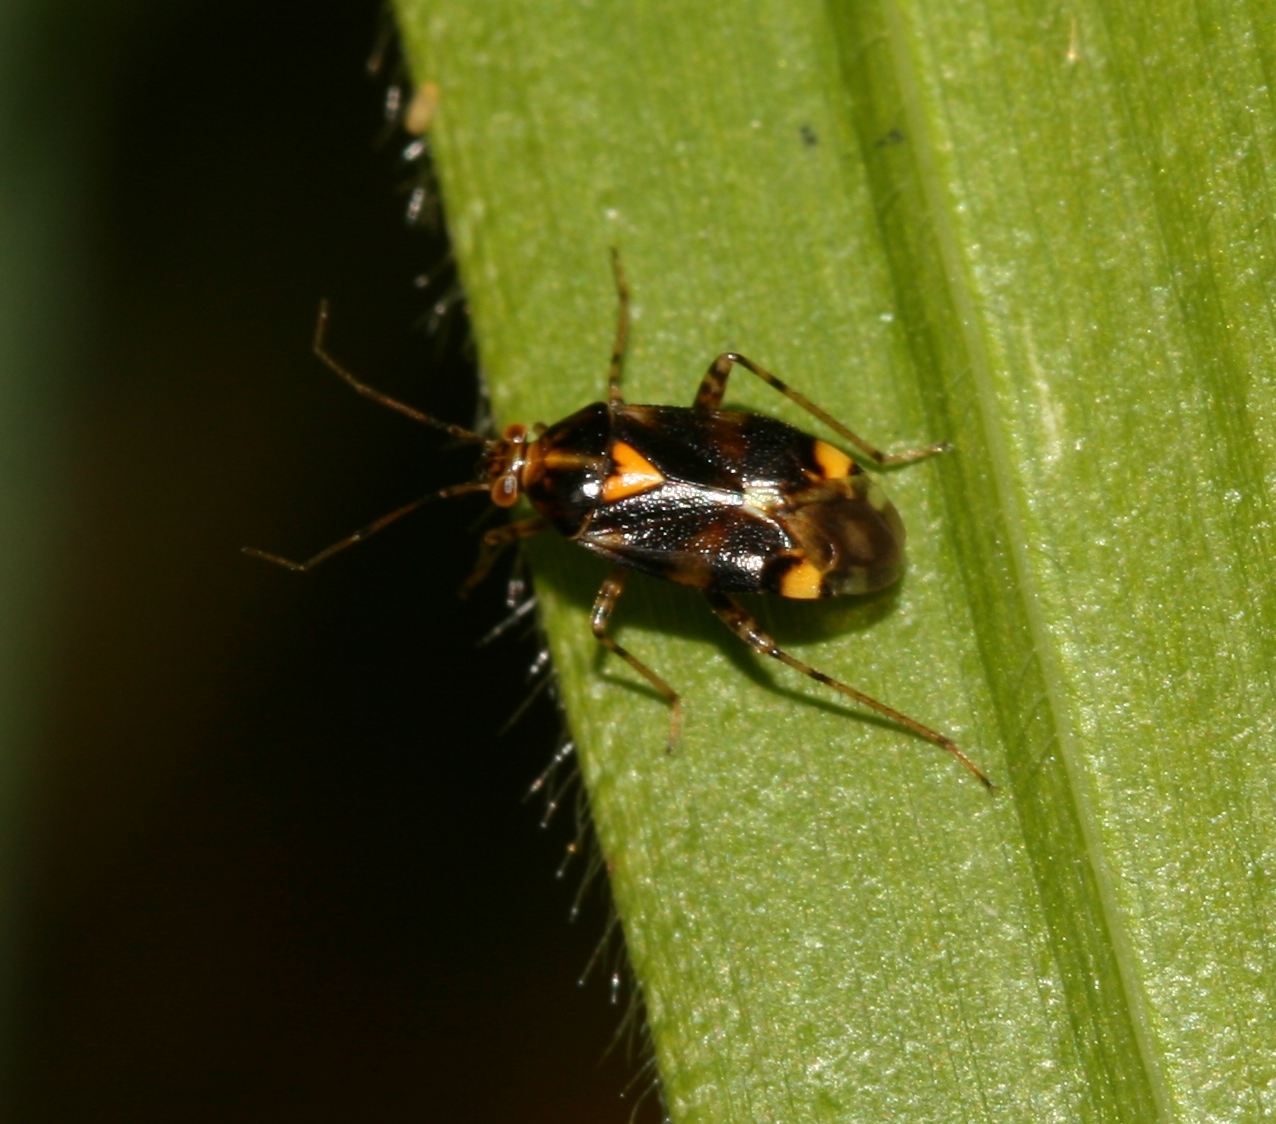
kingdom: Animalia
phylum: Arthropoda
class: Insecta
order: Hemiptera
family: Miridae
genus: Liocoris
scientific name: Liocoris tripustulatus
